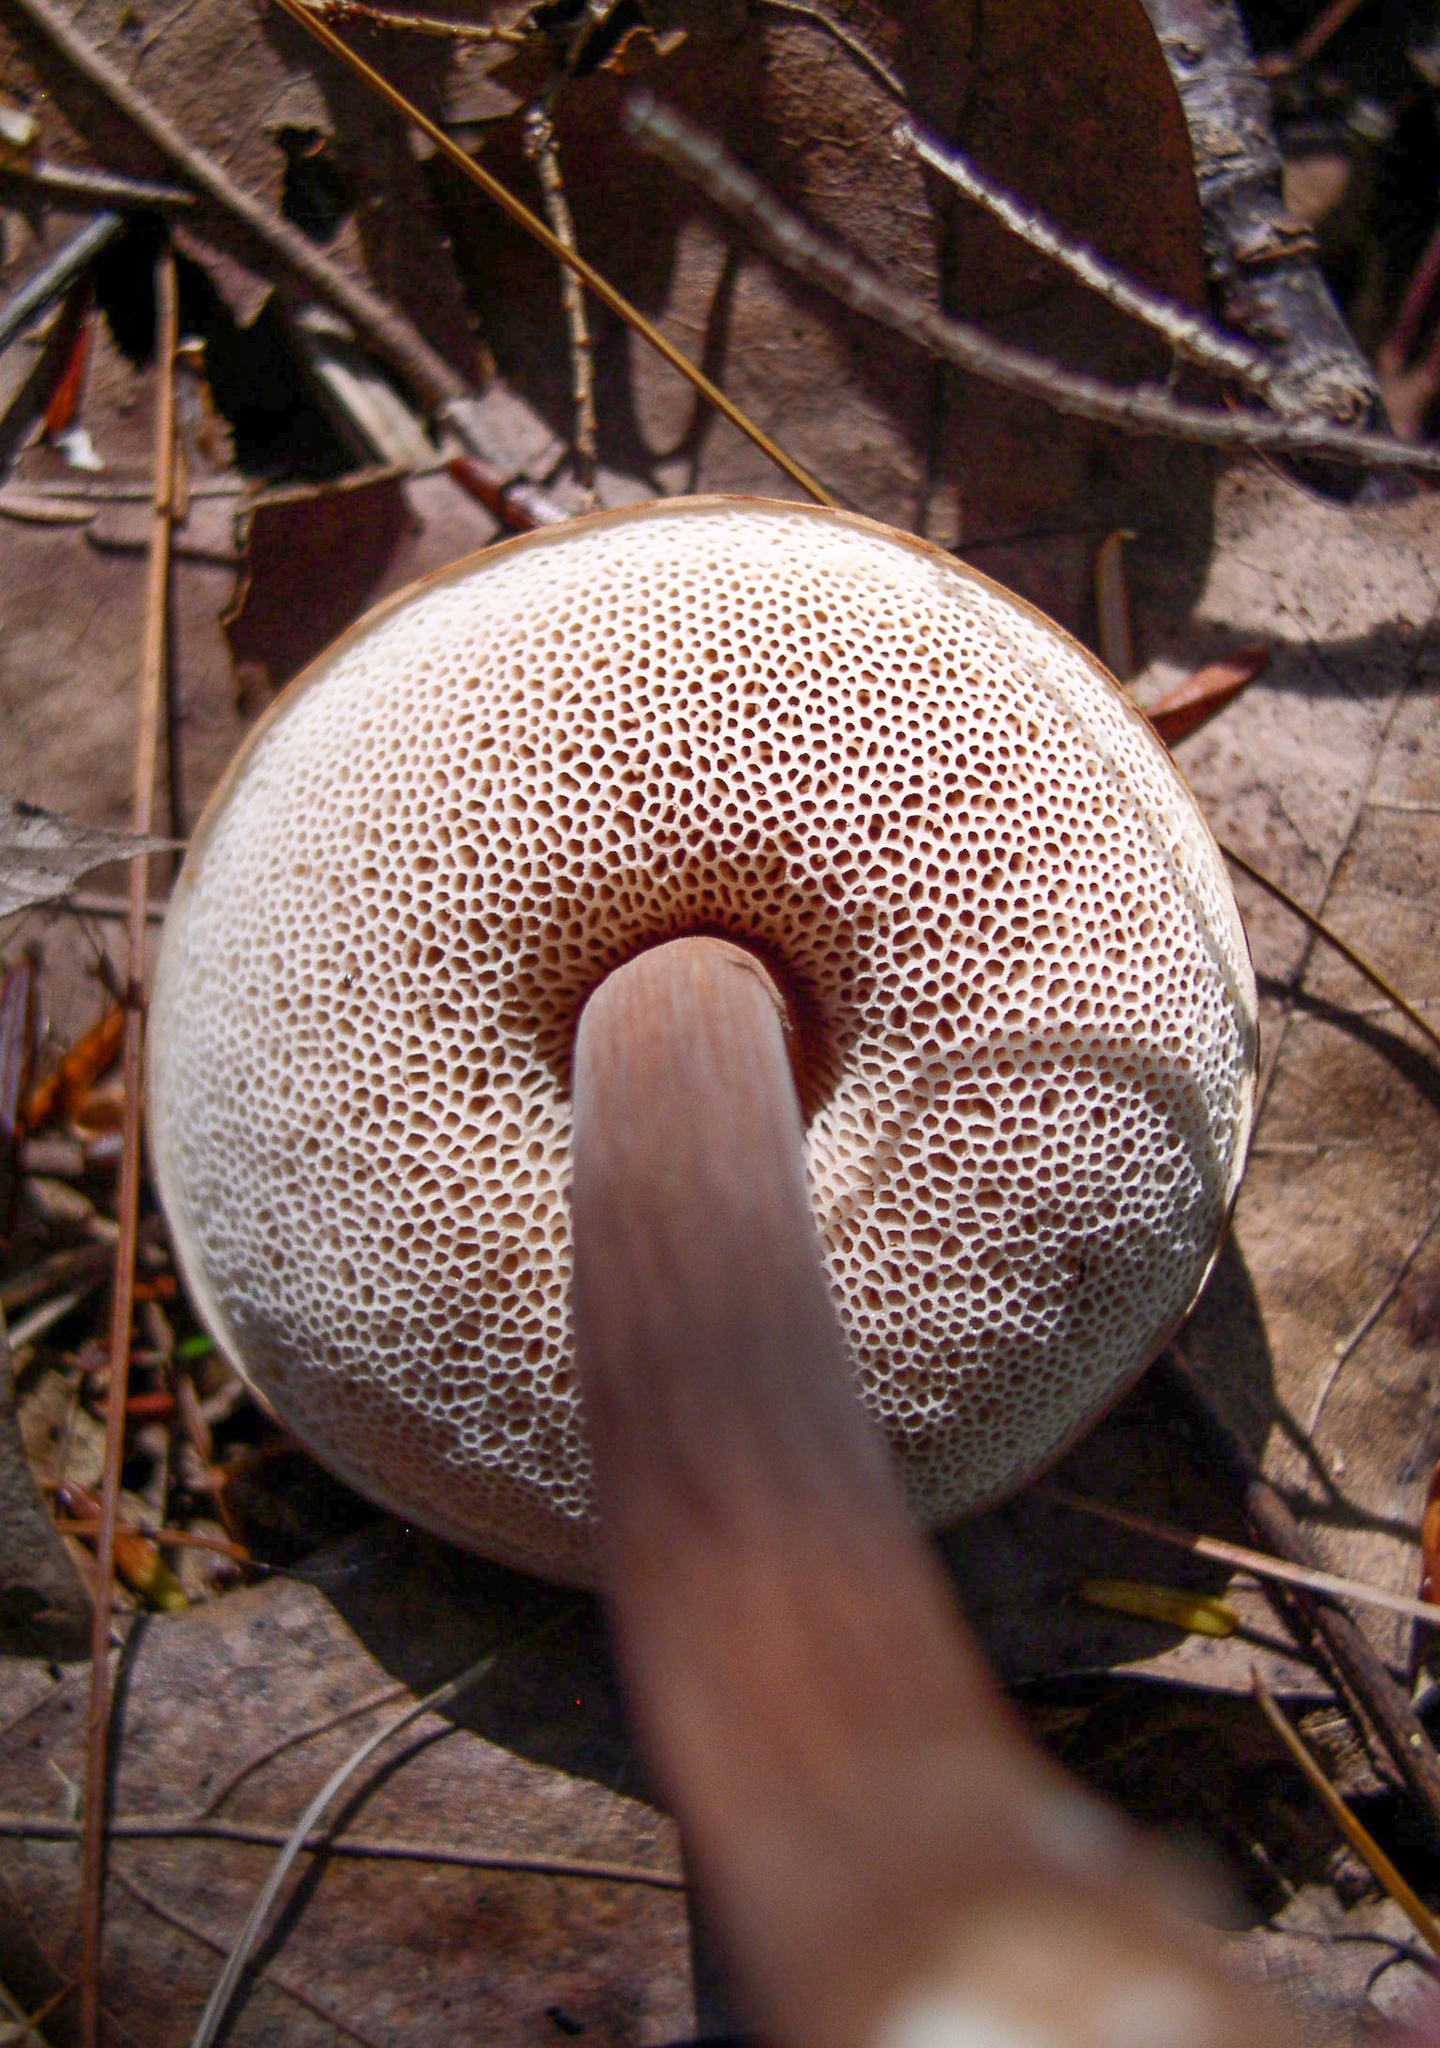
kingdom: Fungi
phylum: Basidiomycota
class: Agaricomycetes
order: Boletales
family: Boletaceae
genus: Austroboletus
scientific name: Austroboletus gracilis
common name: Graceful bolete
